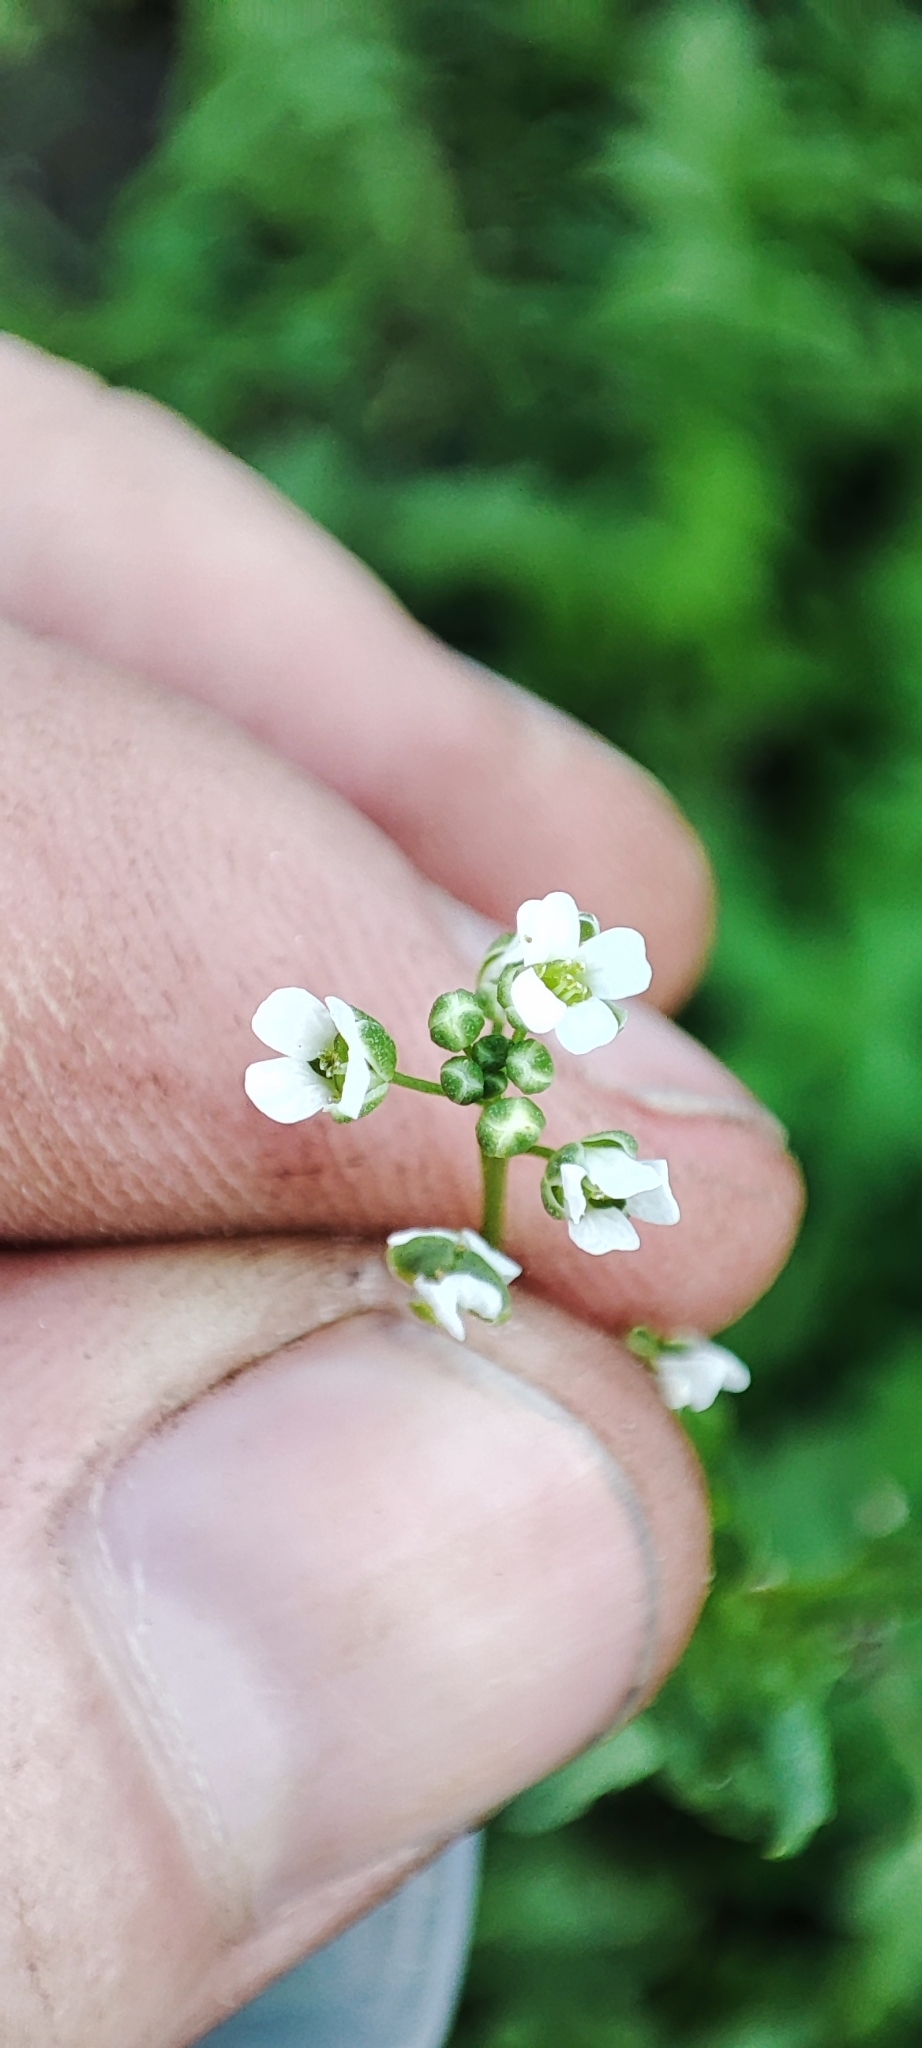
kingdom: Plantae
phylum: Tracheophyta
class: Magnoliopsida
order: Brassicales
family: Brassicaceae
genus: Thlaspi
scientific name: Thlaspi arvense
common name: Field pennycress
